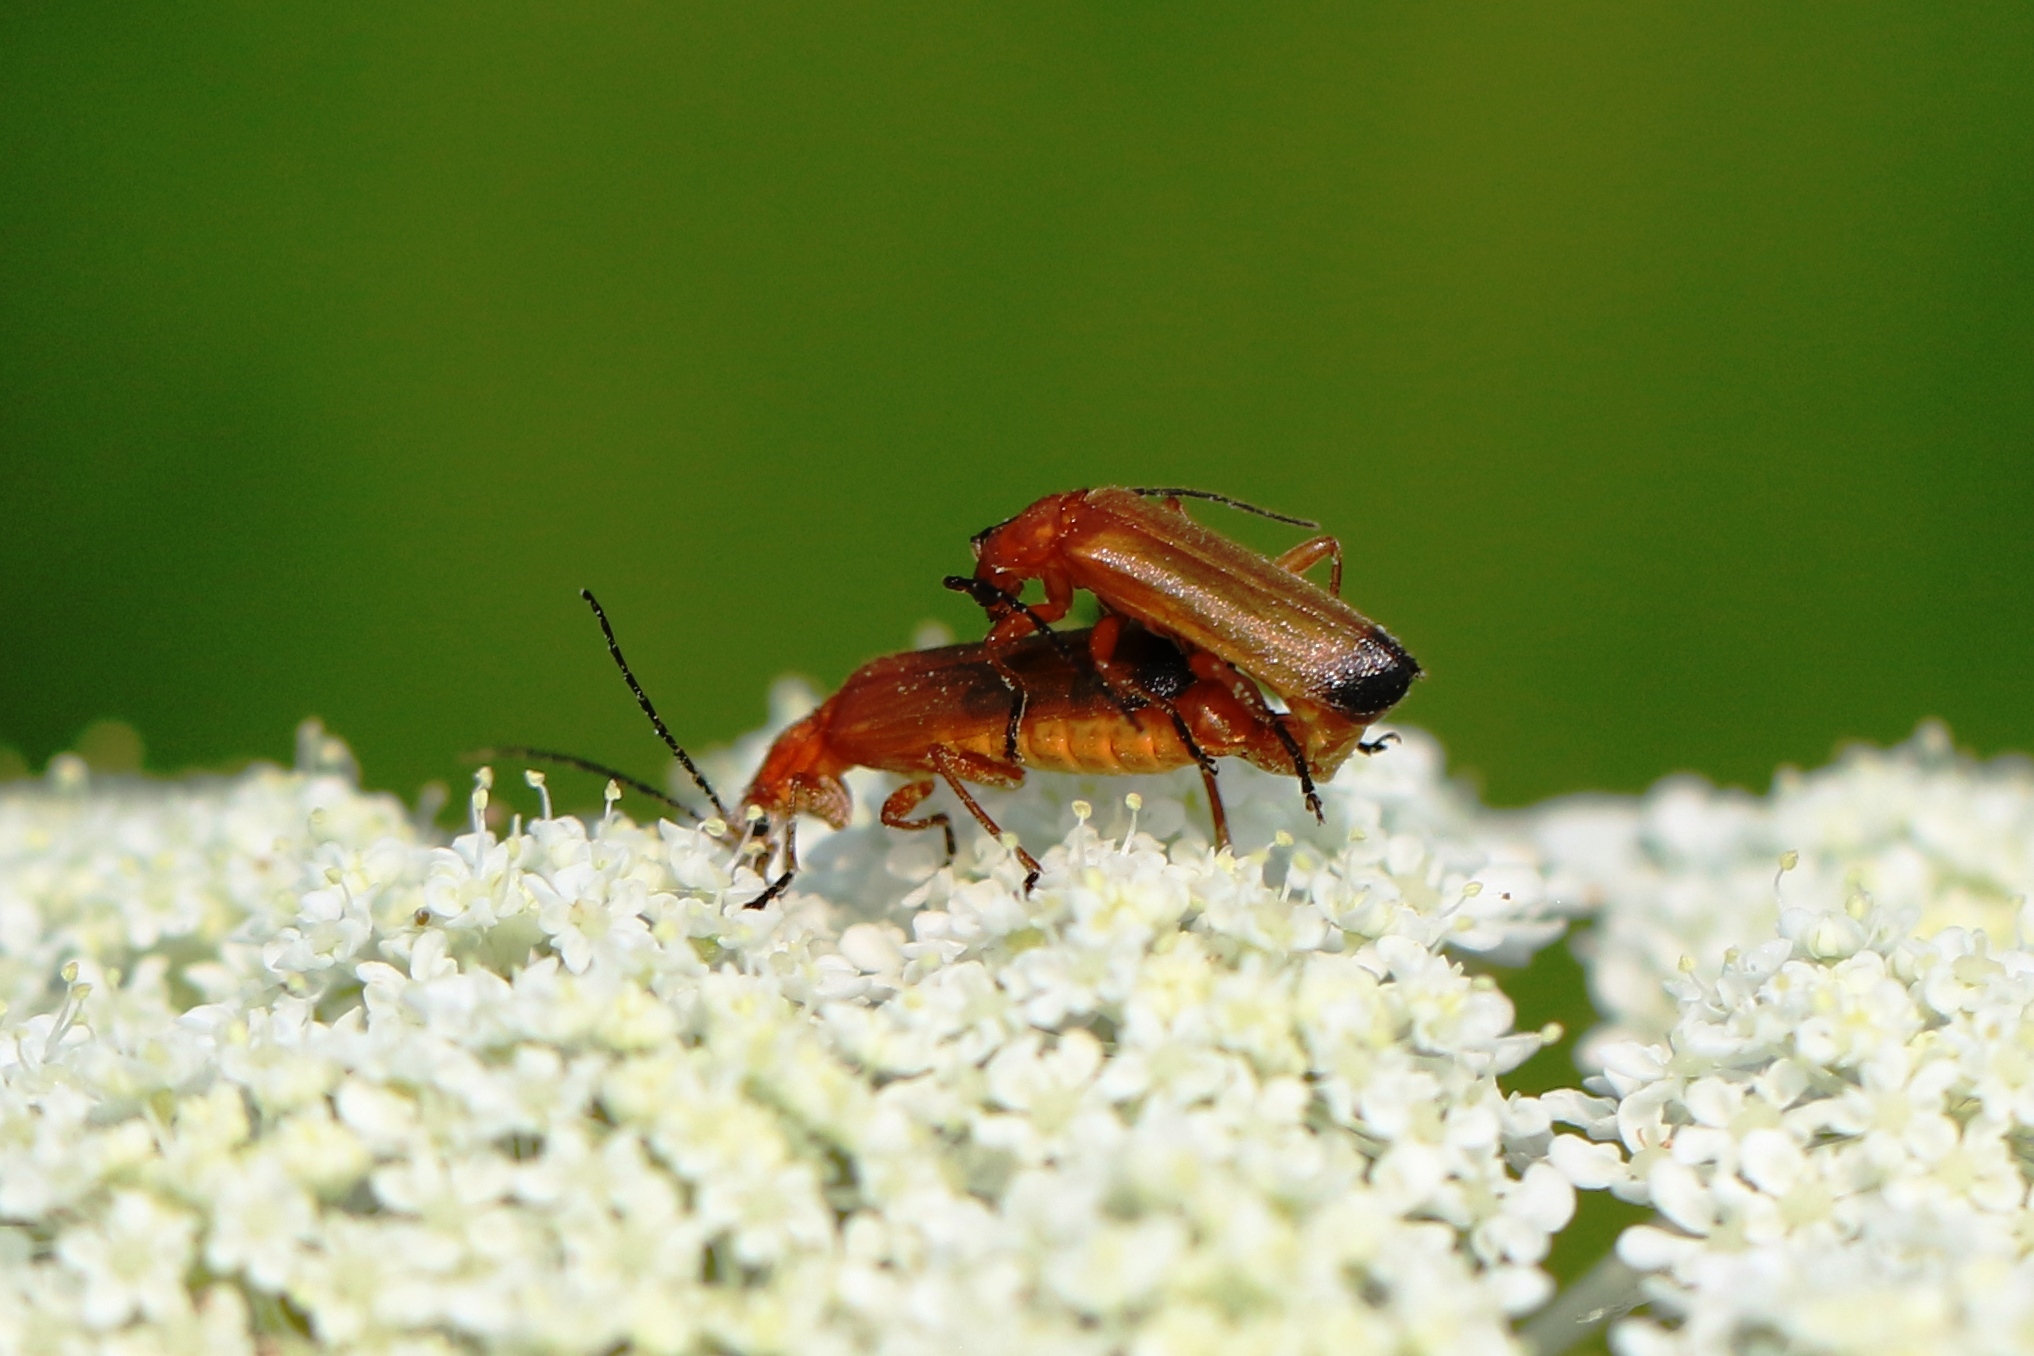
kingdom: Animalia
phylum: Arthropoda
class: Insecta
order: Coleoptera
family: Cantharidae
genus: Rhagonycha
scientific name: Rhagonycha fulva
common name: Common red soldier beetle
